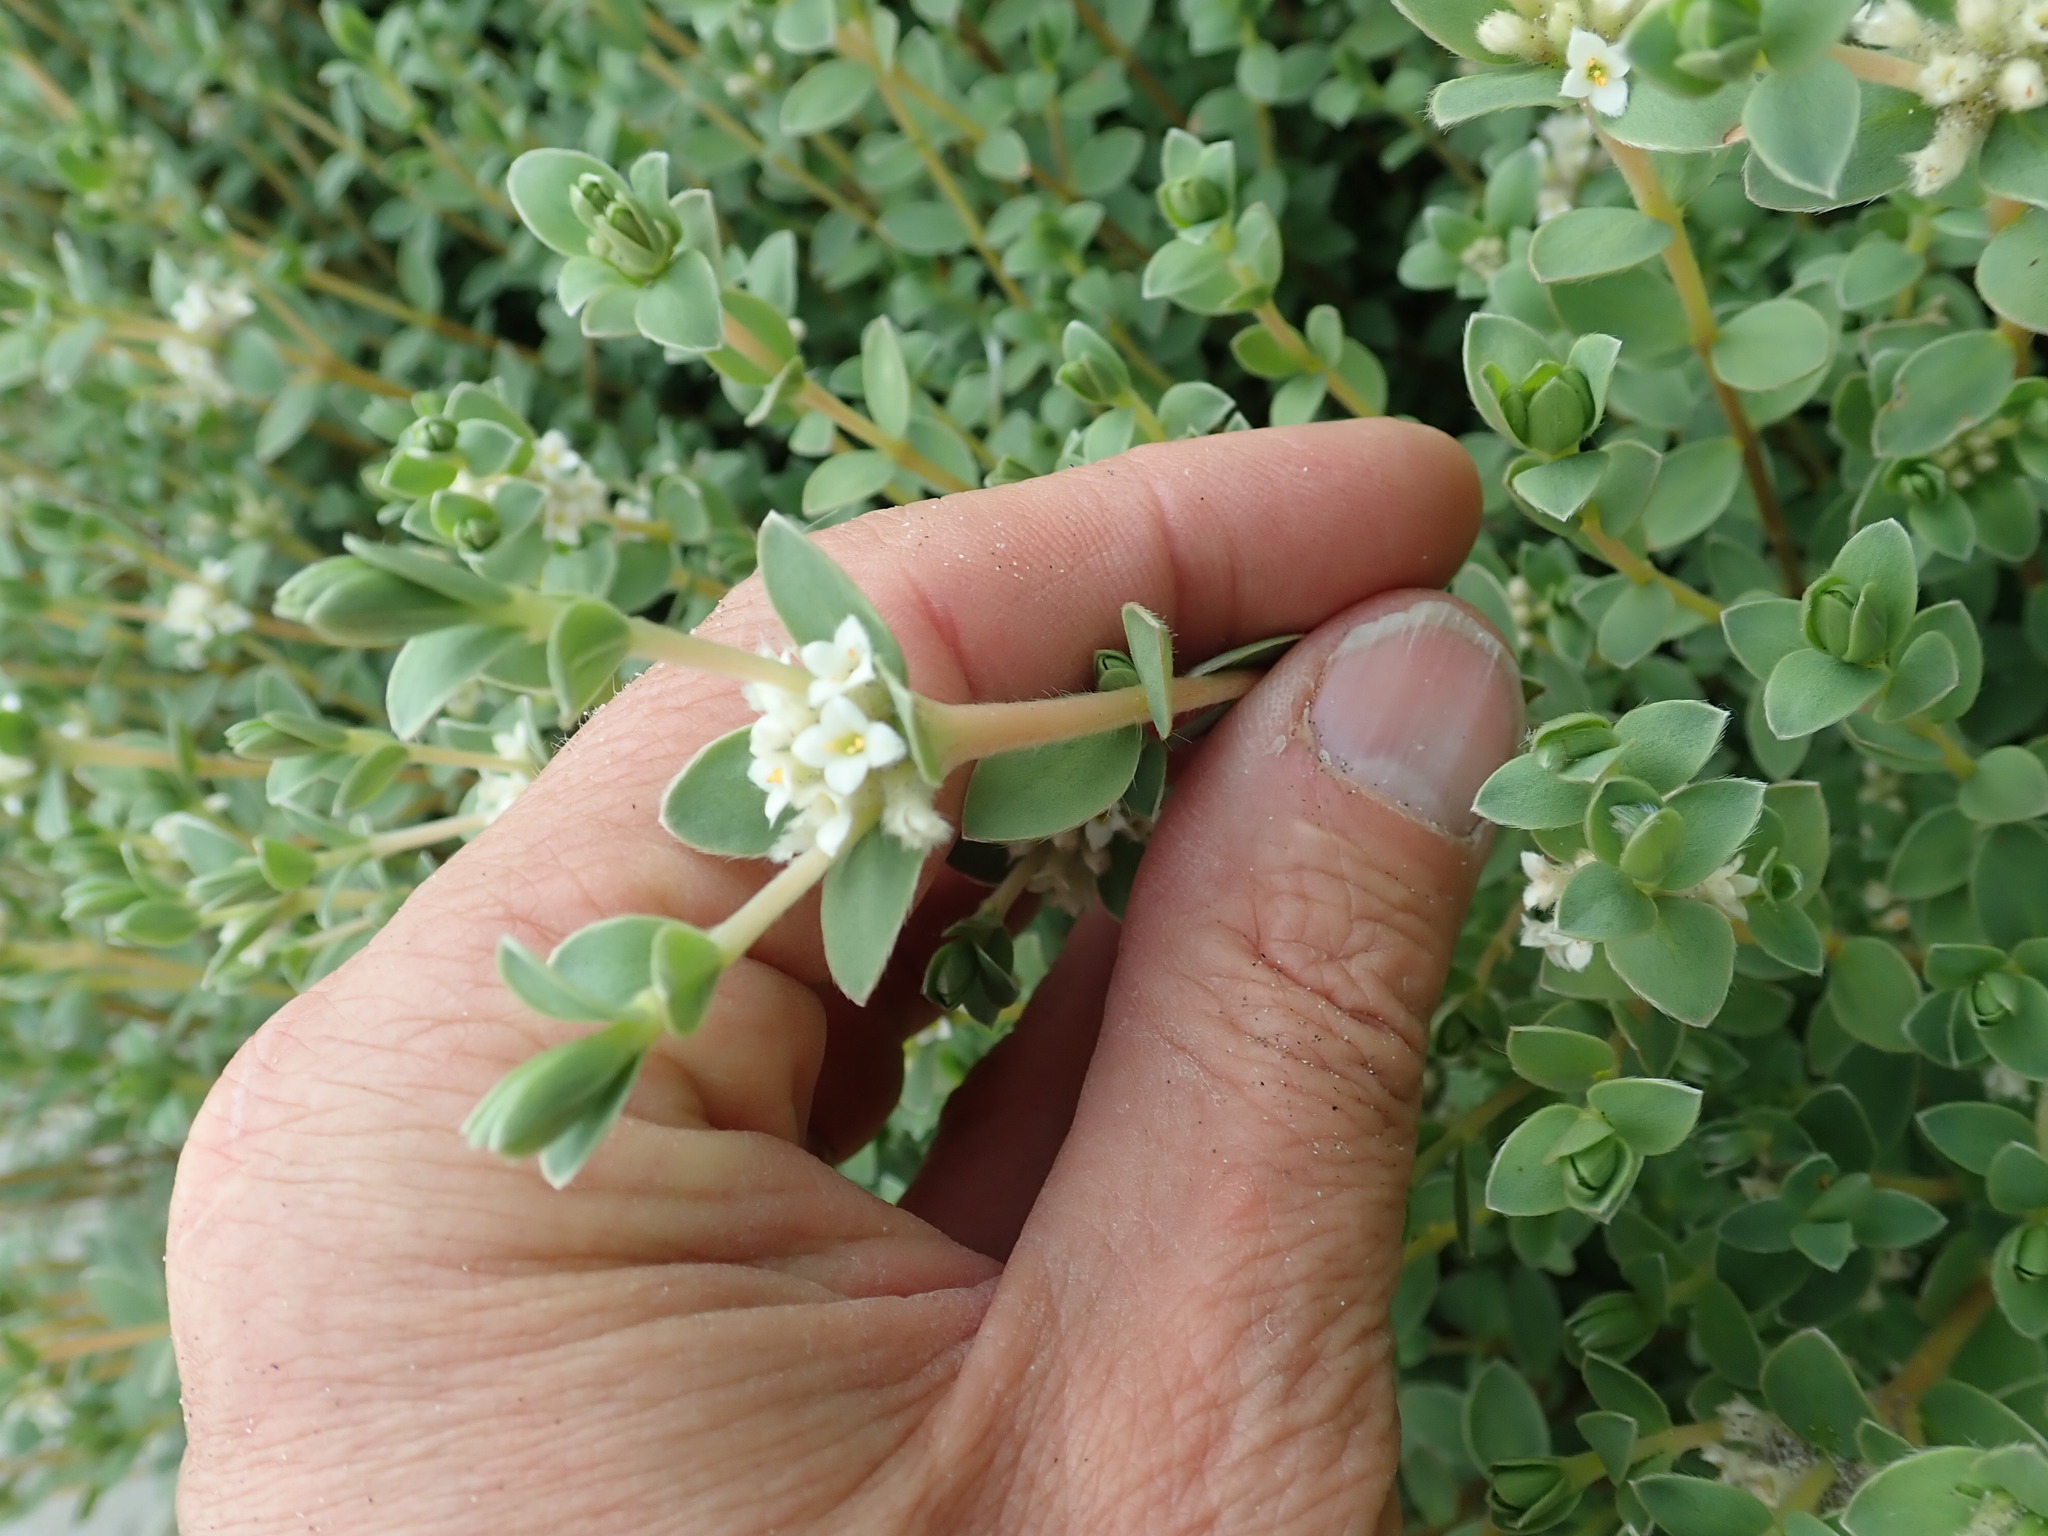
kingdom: Plantae
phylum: Tracheophyta
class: Magnoliopsida
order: Malvales
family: Thymelaeaceae
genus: Pimelea
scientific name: Pimelea villosa
